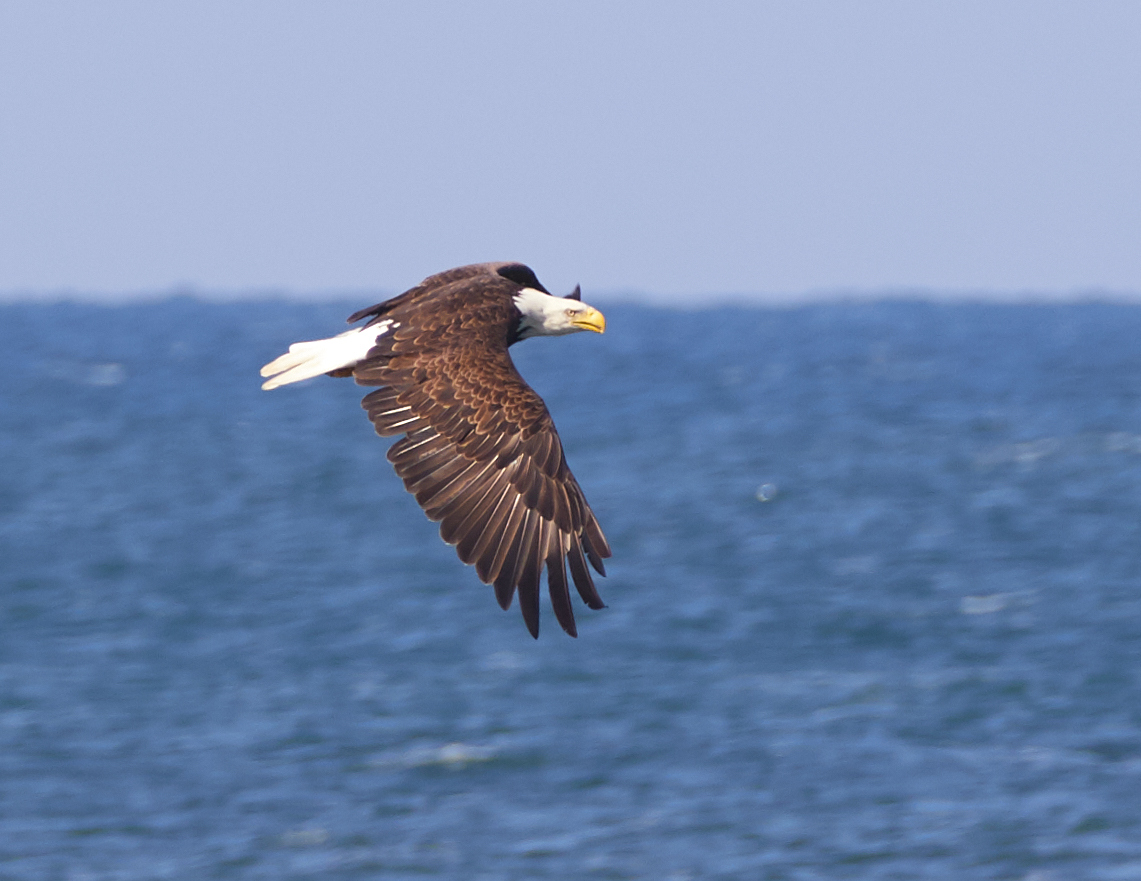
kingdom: Animalia
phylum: Chordata
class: Aves
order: Accipitriformes
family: Accipitridae
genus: Haliaeetus
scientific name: Haliaeetus leucocephalus
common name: Bald eagle
